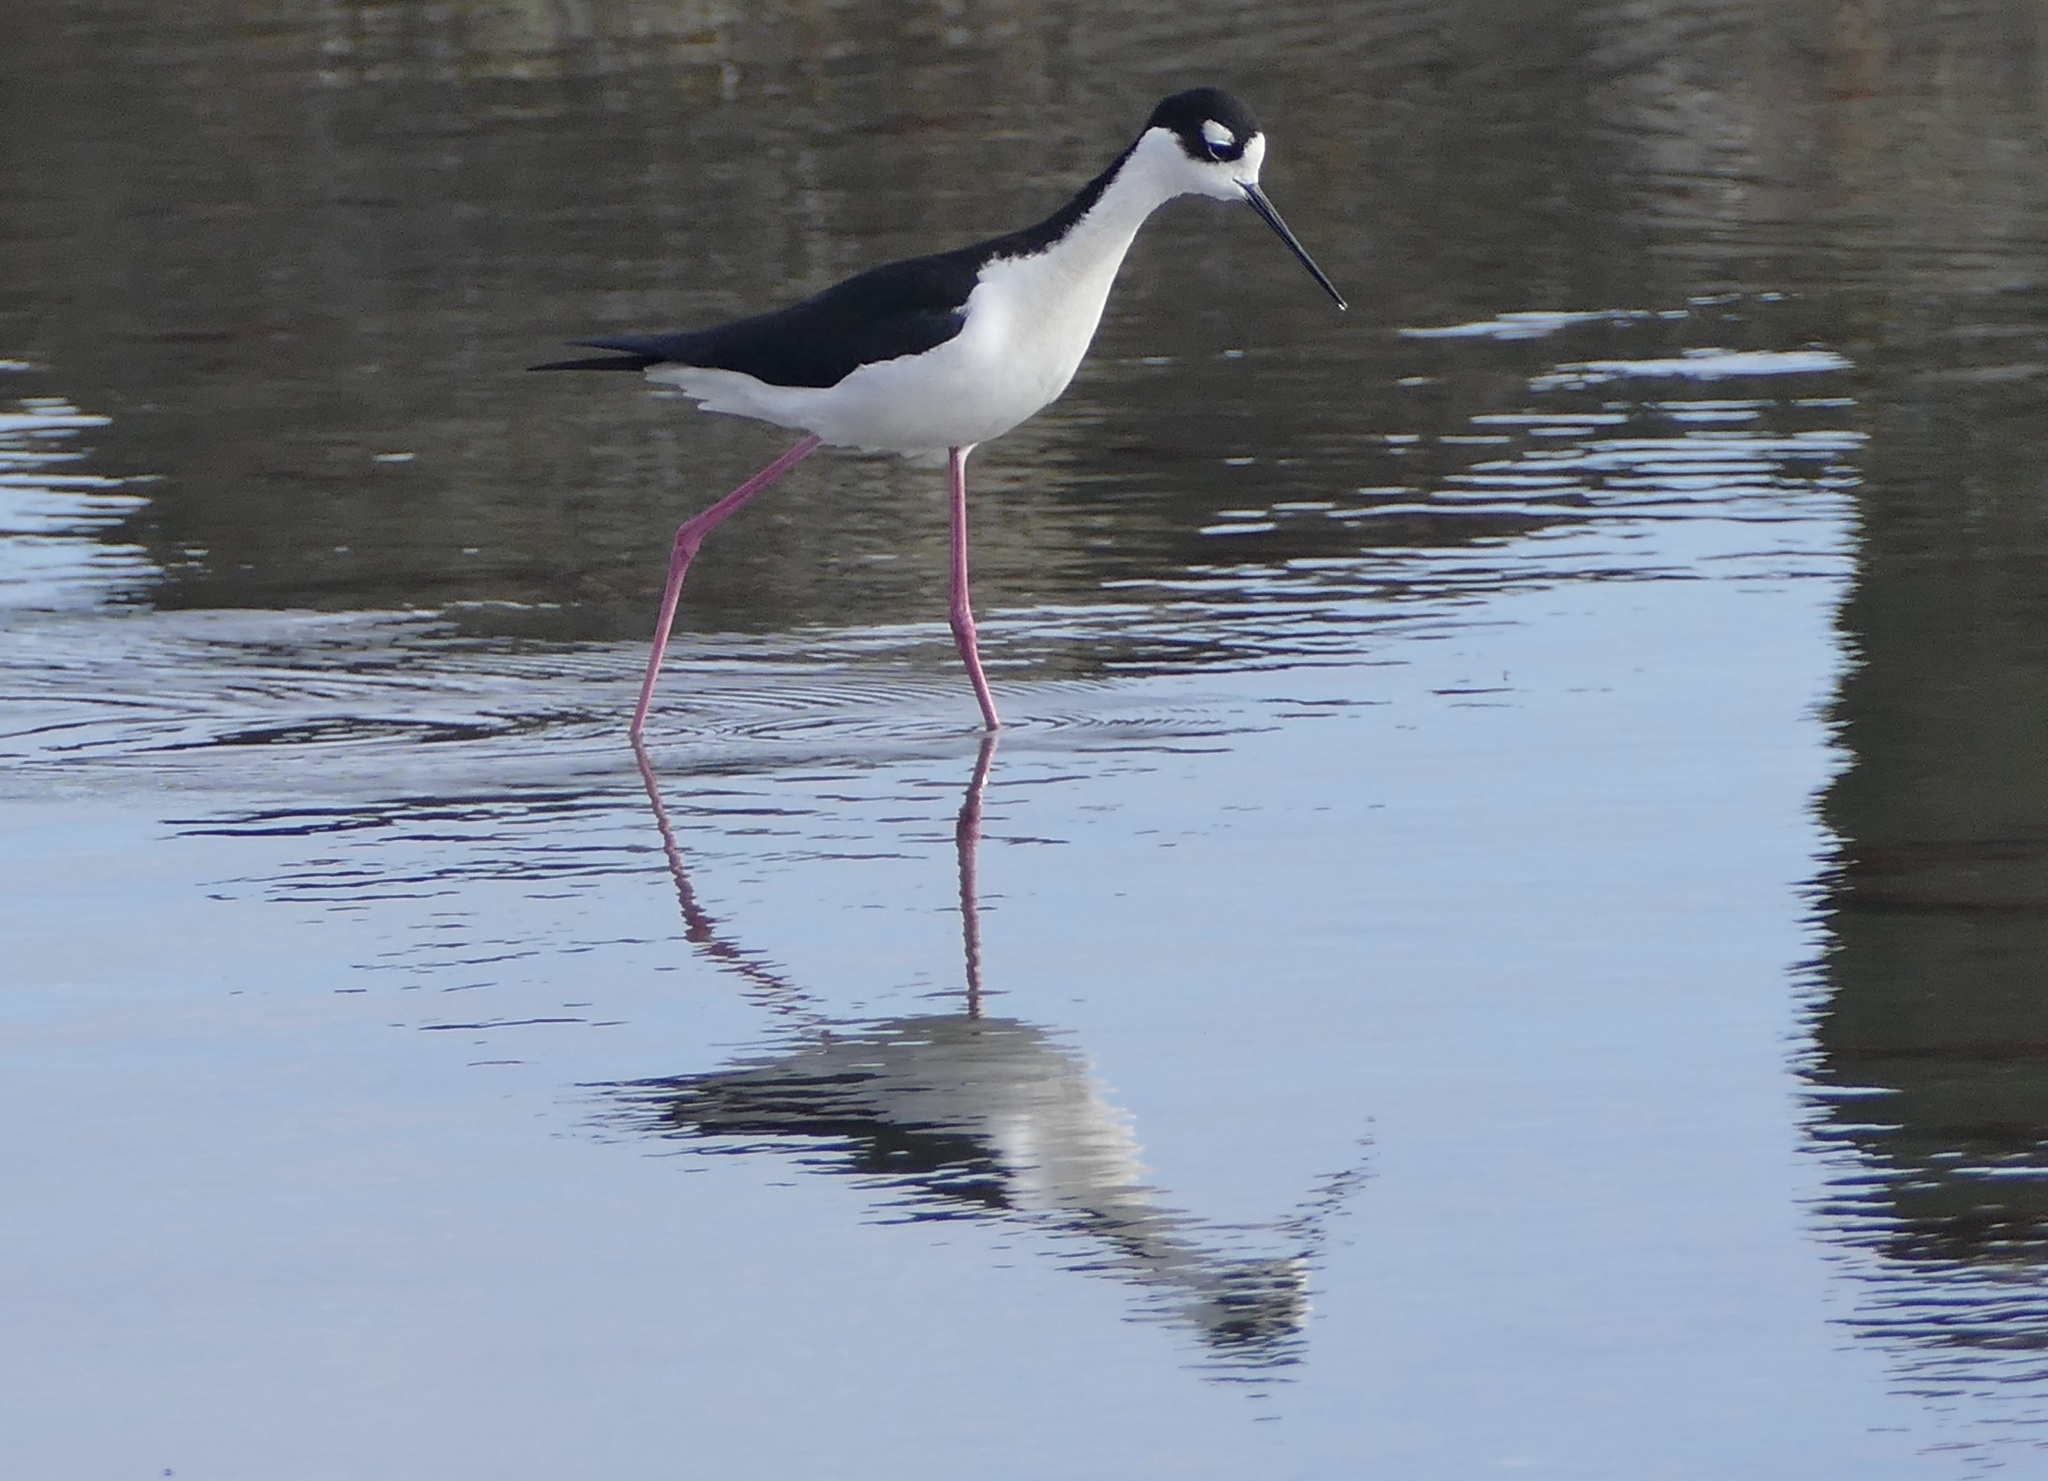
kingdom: Animalia
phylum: Chordata
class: Aves
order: Charadriiformes
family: Recurvirostridae
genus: Himantopus
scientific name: Himantopus mexicanus
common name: Black-necked stilt
